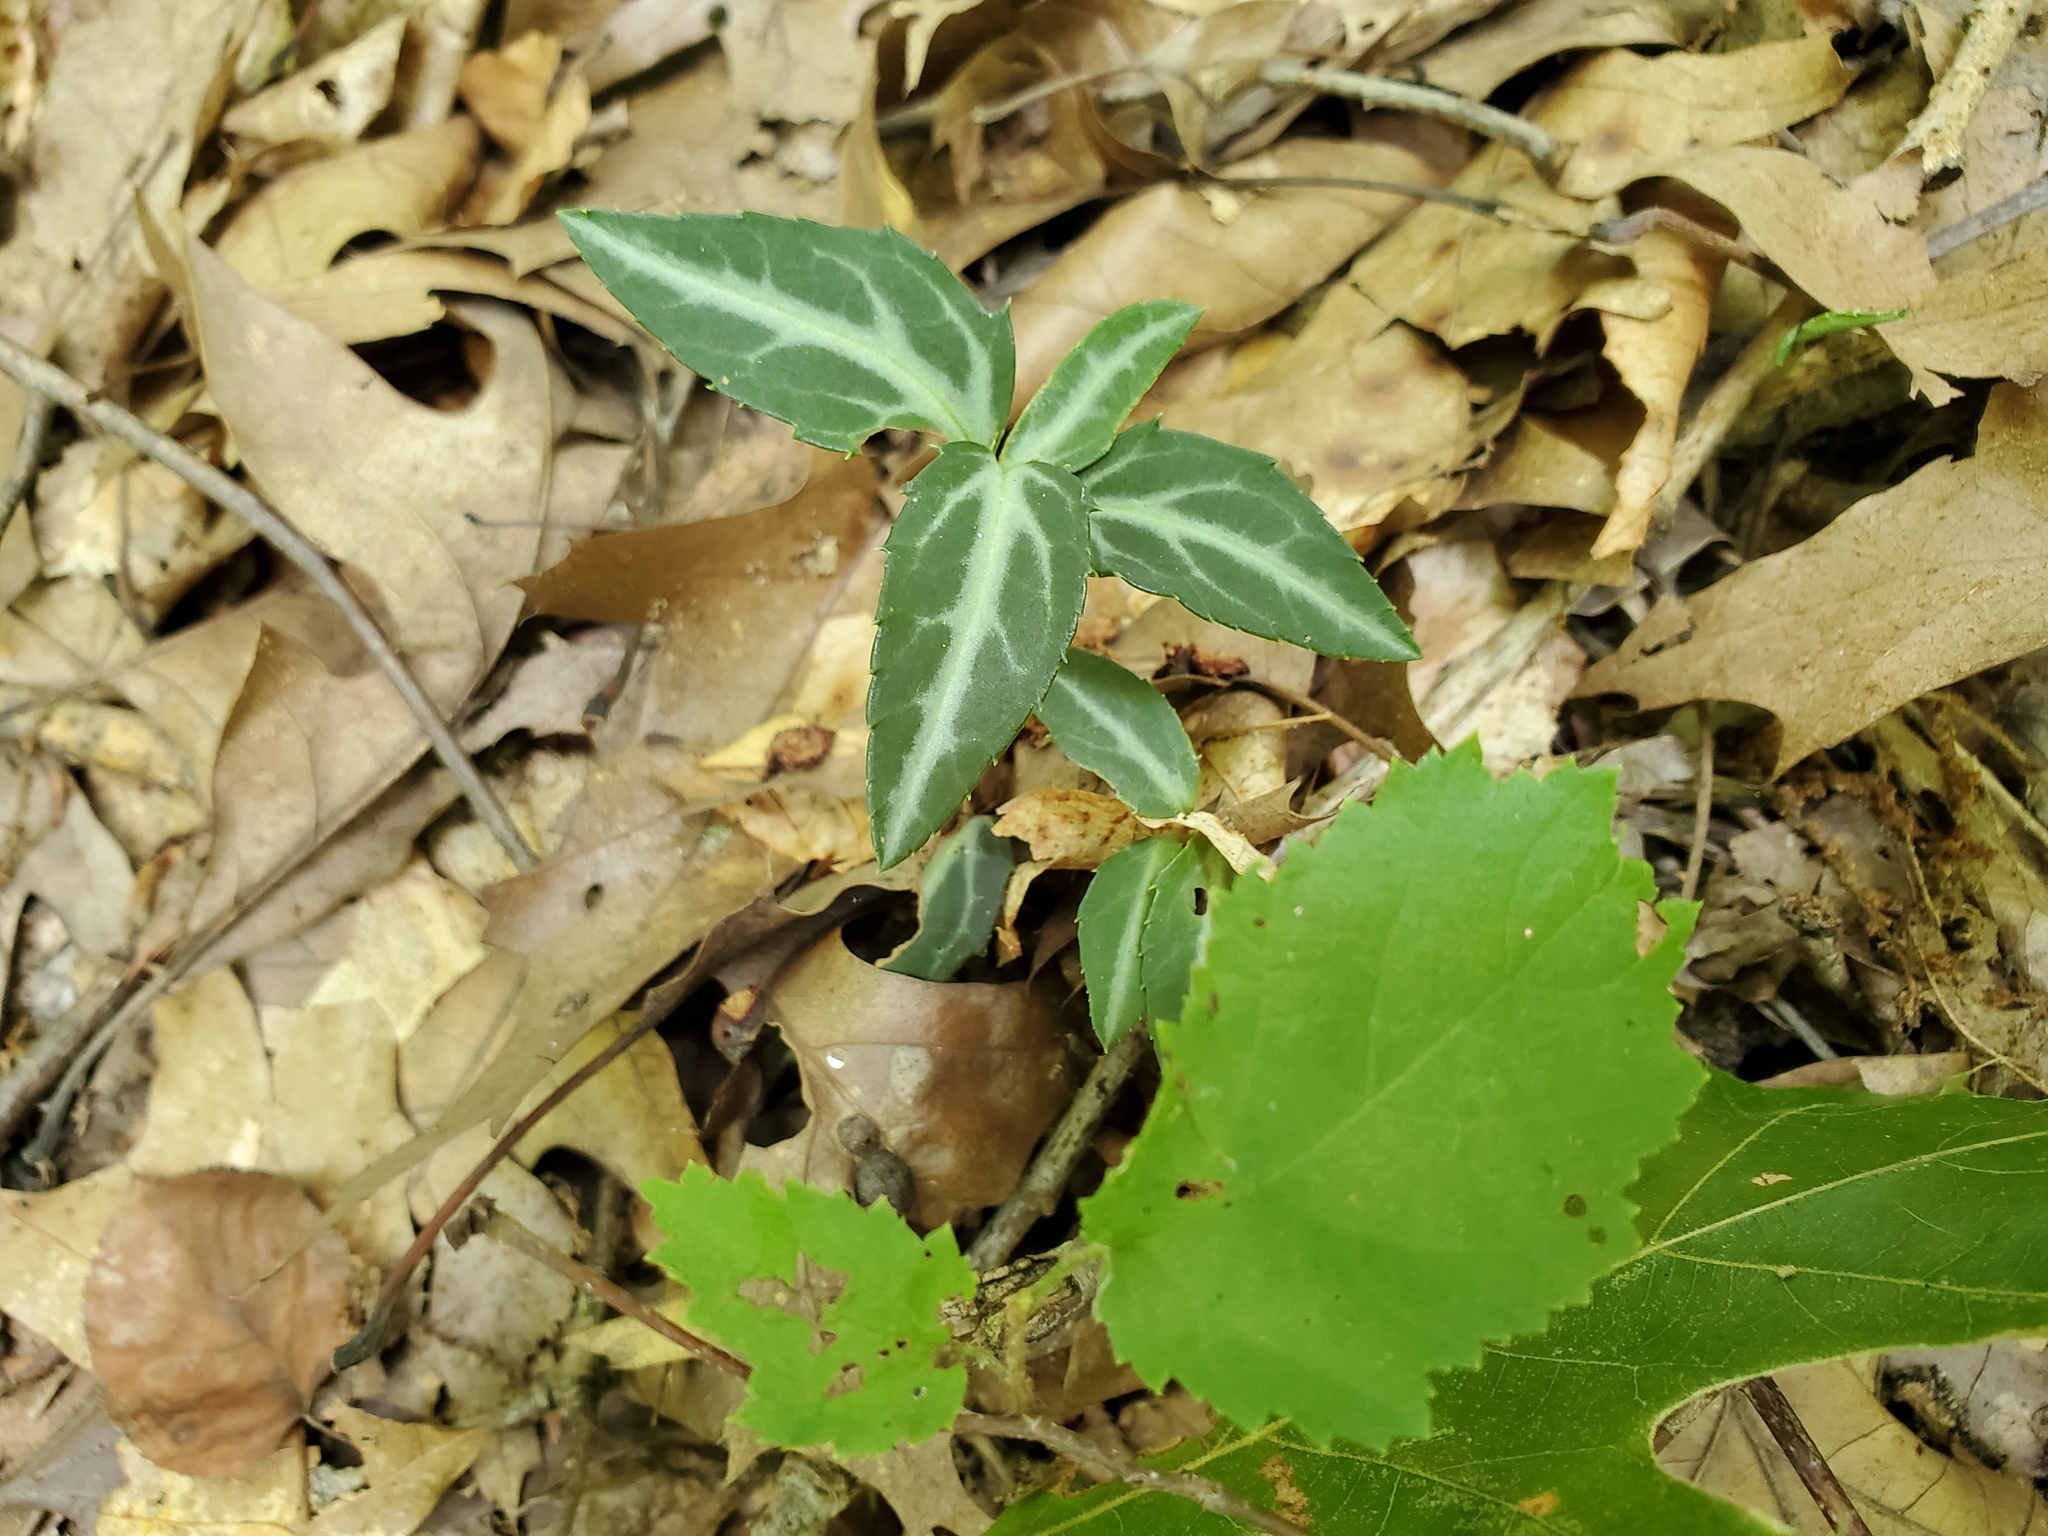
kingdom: Plantae
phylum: Tracheophyta
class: Magnoliopsida
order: Ericales
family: Ericaceae
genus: Chimaphila
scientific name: Chimaphila maculata
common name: Spotted pipsissewa
